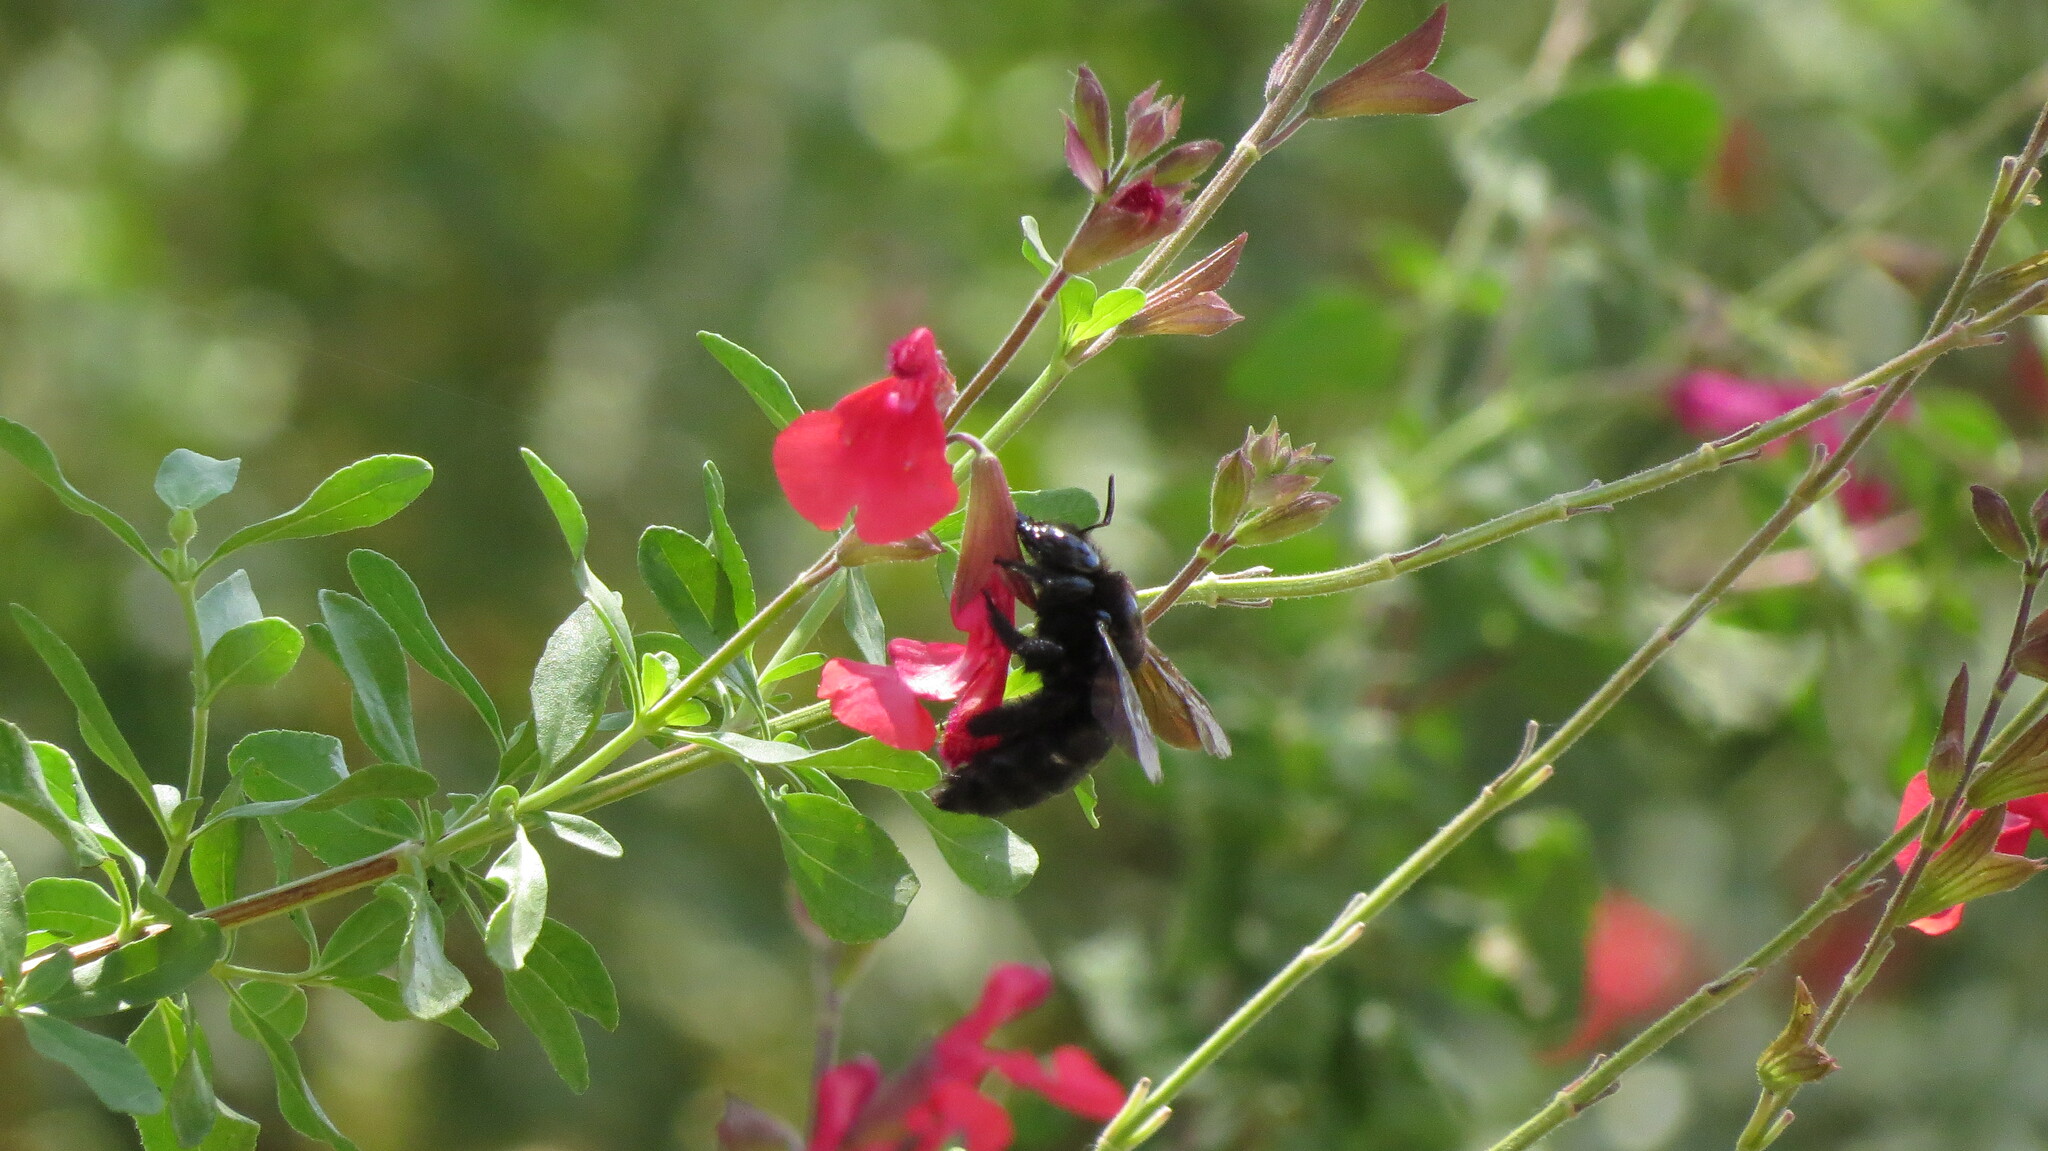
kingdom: Animalia
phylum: Arthropoda
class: Insecta
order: Hymenoptera
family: Apidae
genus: Xylocopa
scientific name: Xylocopa sonorina
